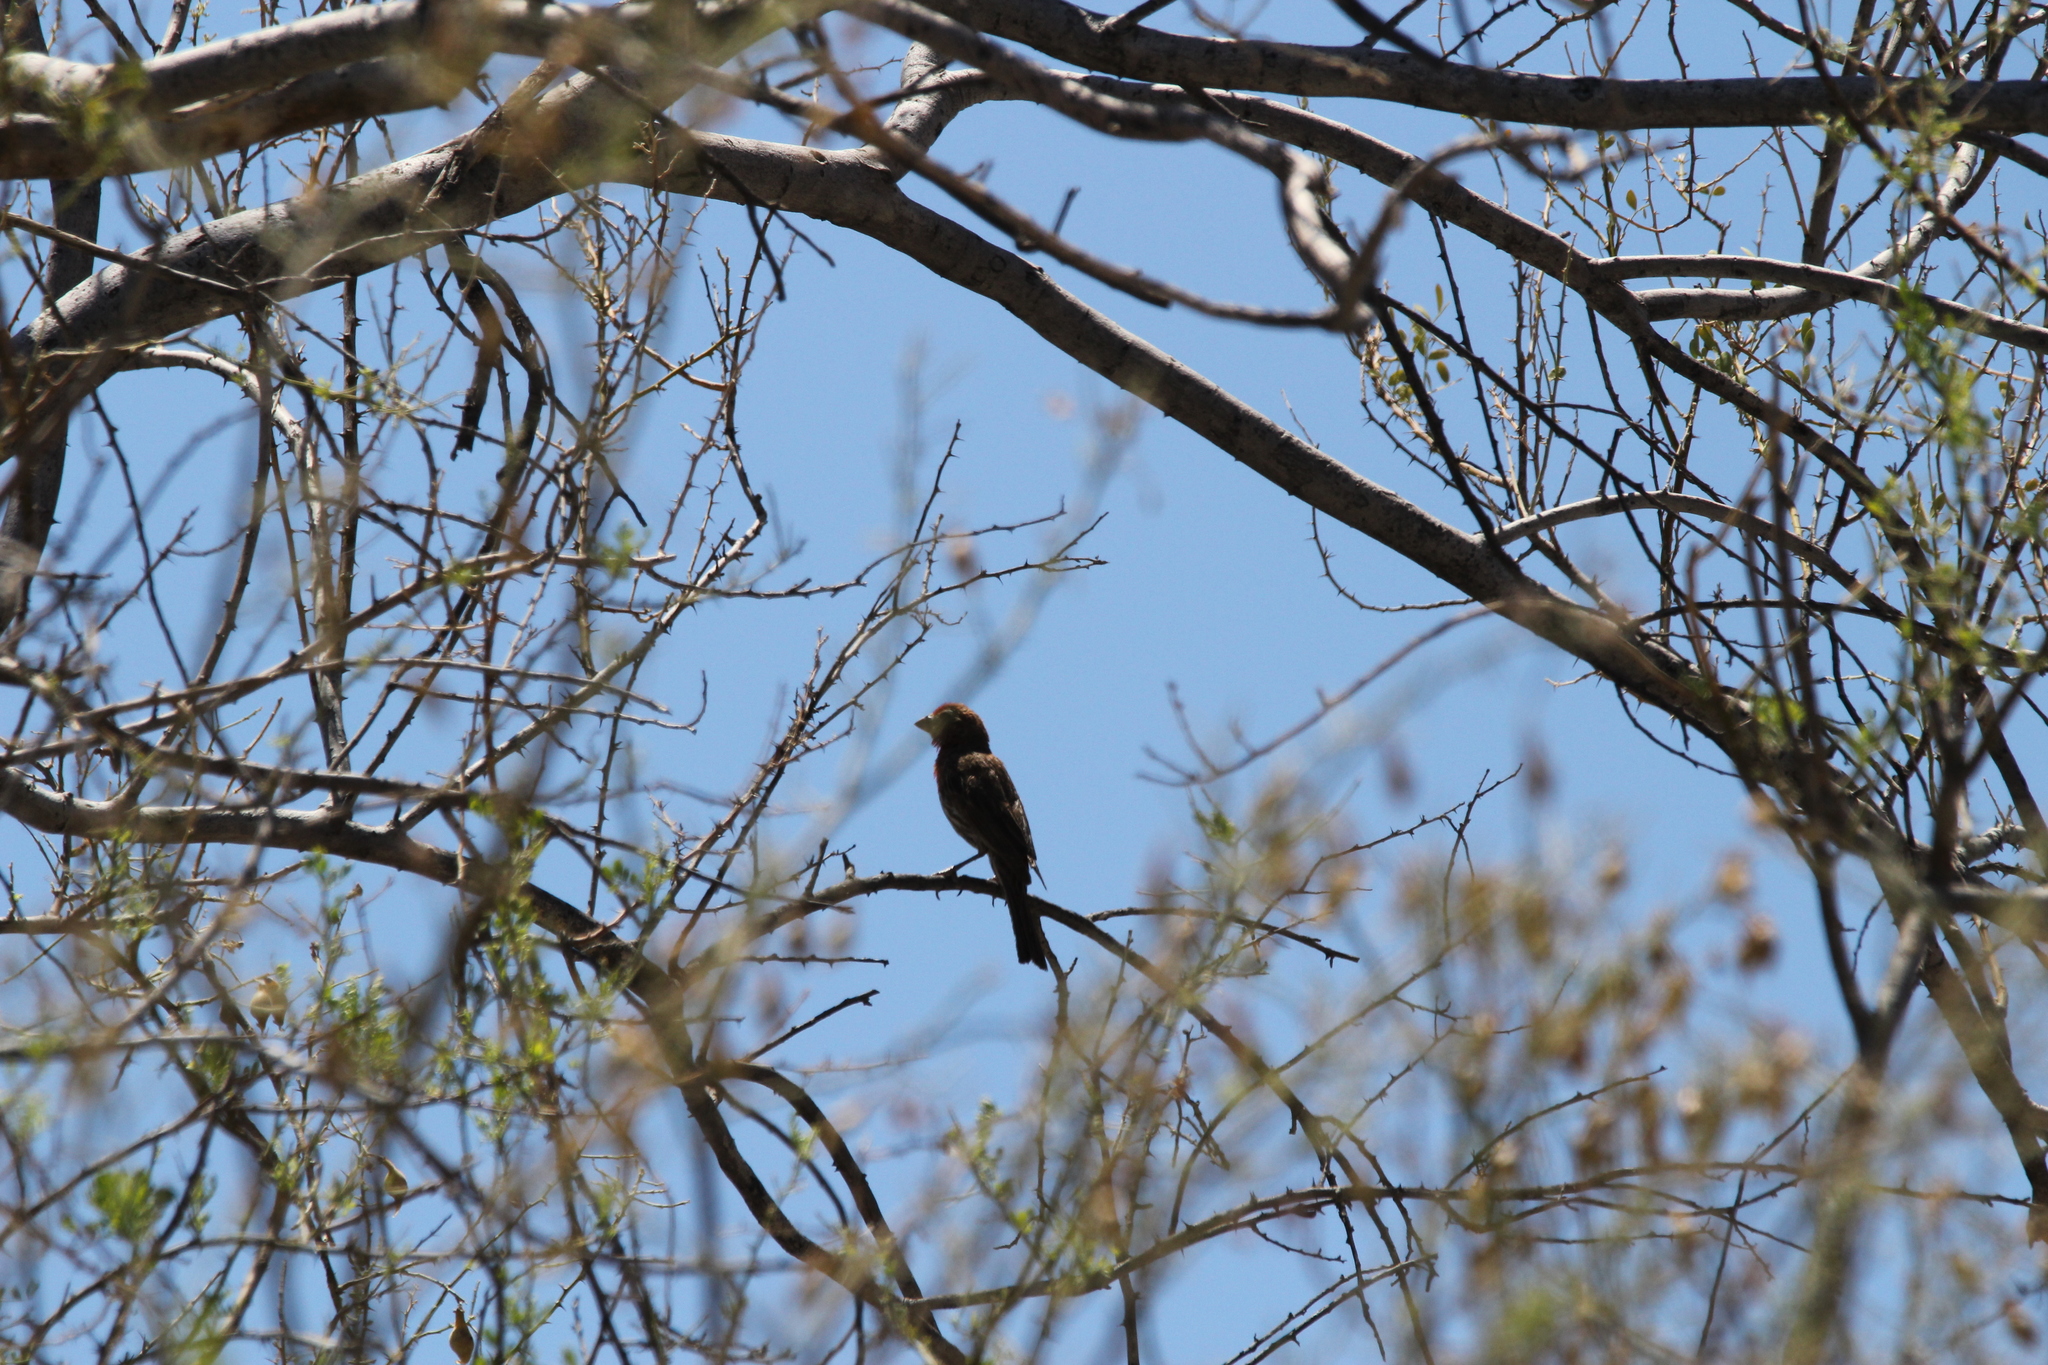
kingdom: Animalia
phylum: Chordata
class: Aves
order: Passeriformes
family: Fringillidae
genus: Haemorhous
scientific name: Haemorhous mexicanus
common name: House finch
